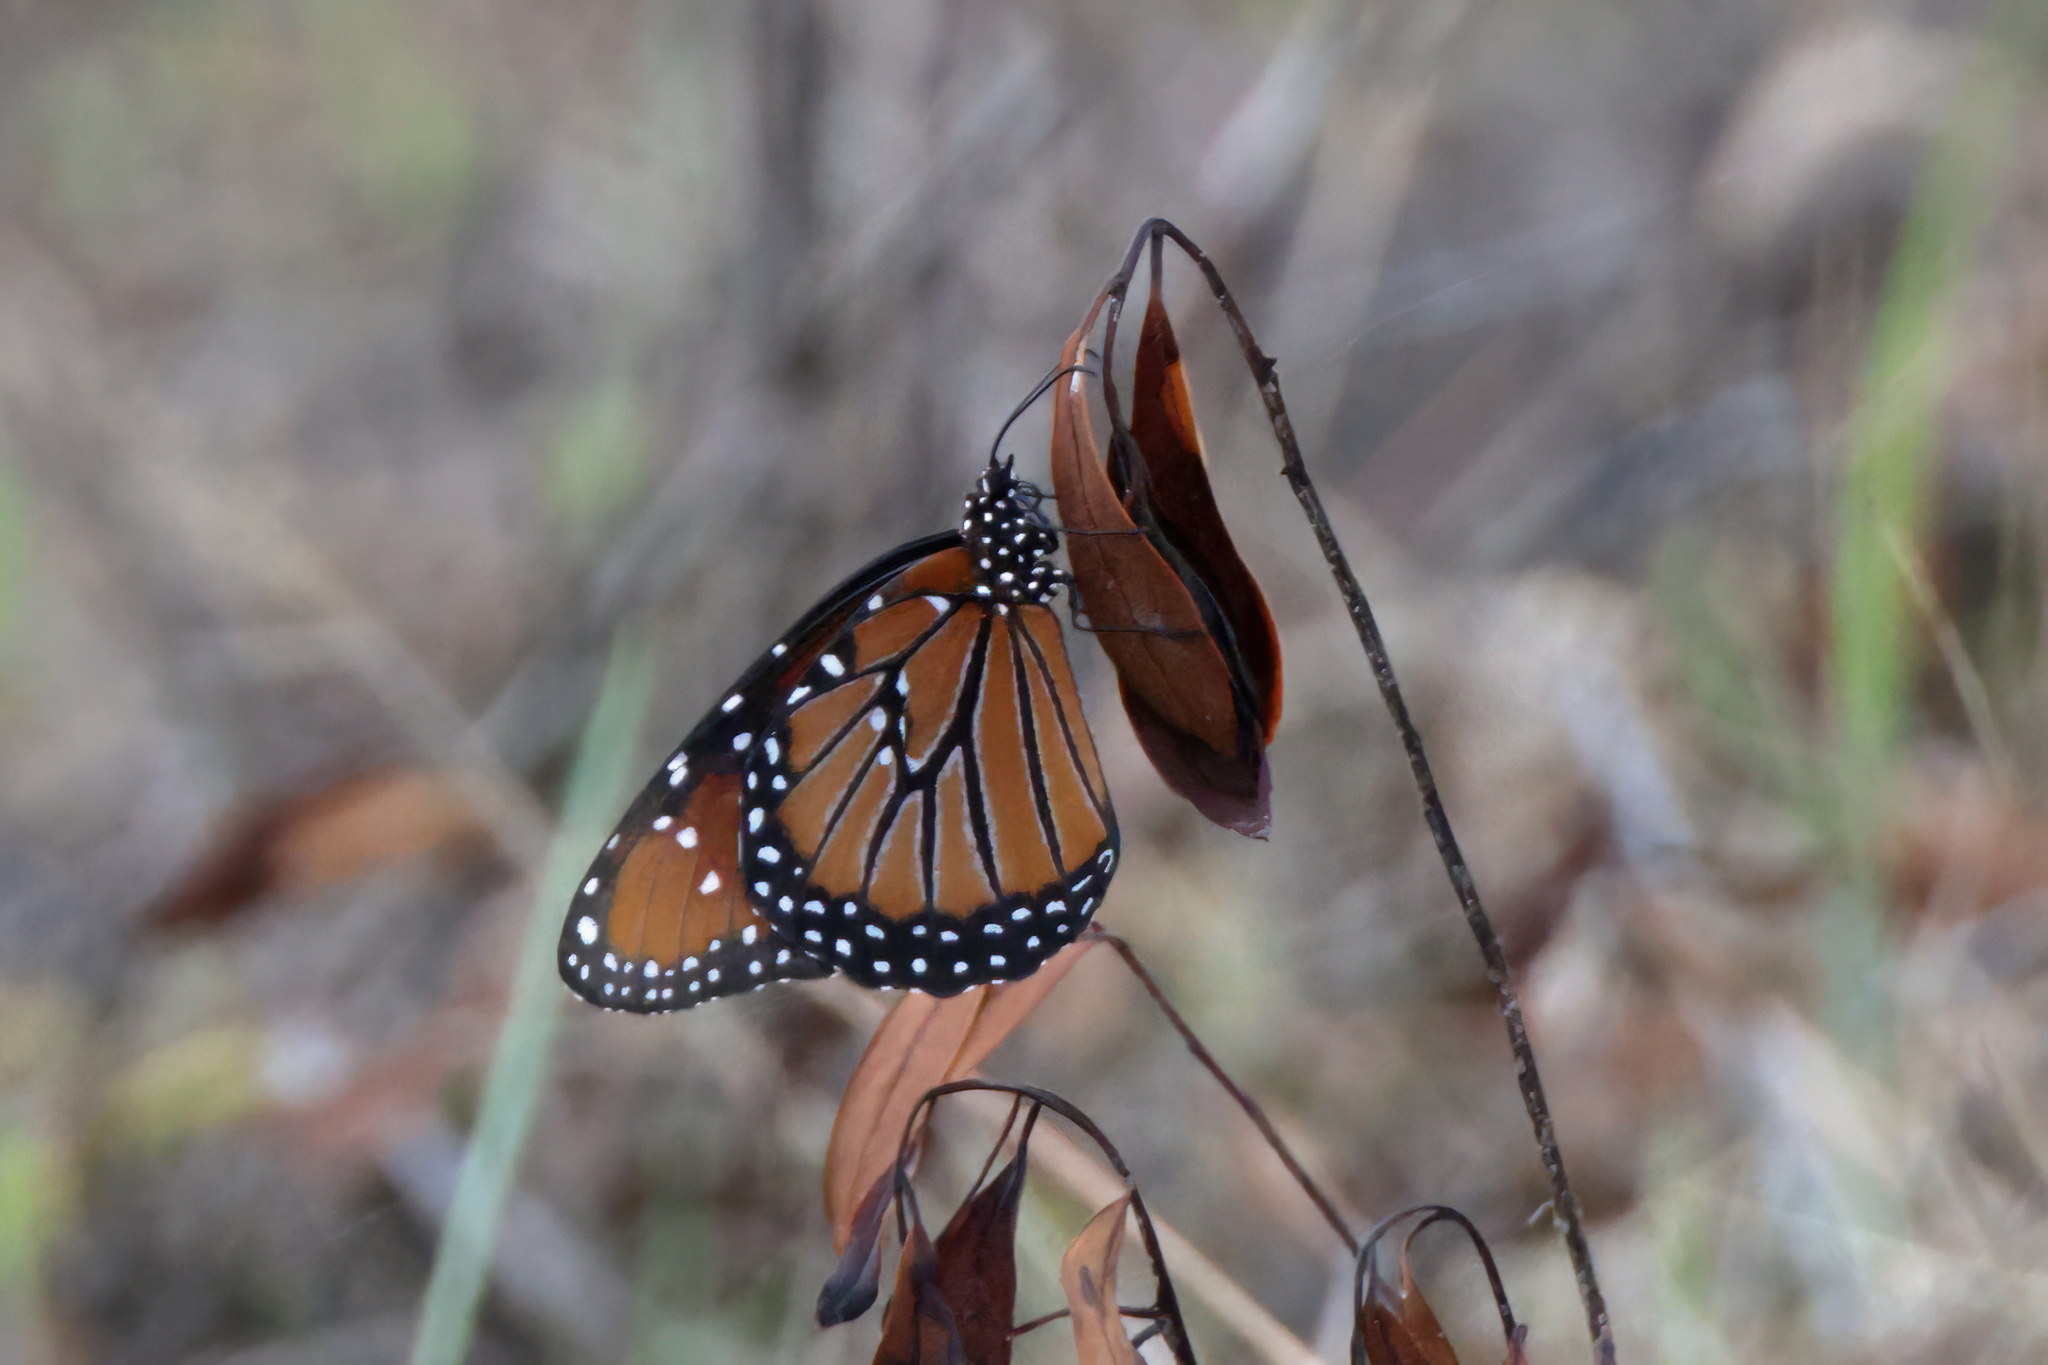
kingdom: Animalia
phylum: Arthropoda
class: Insecta
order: Lepidoptera
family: Nymphalidae
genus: Danaus
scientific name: Danaus gilippus
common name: Queen
